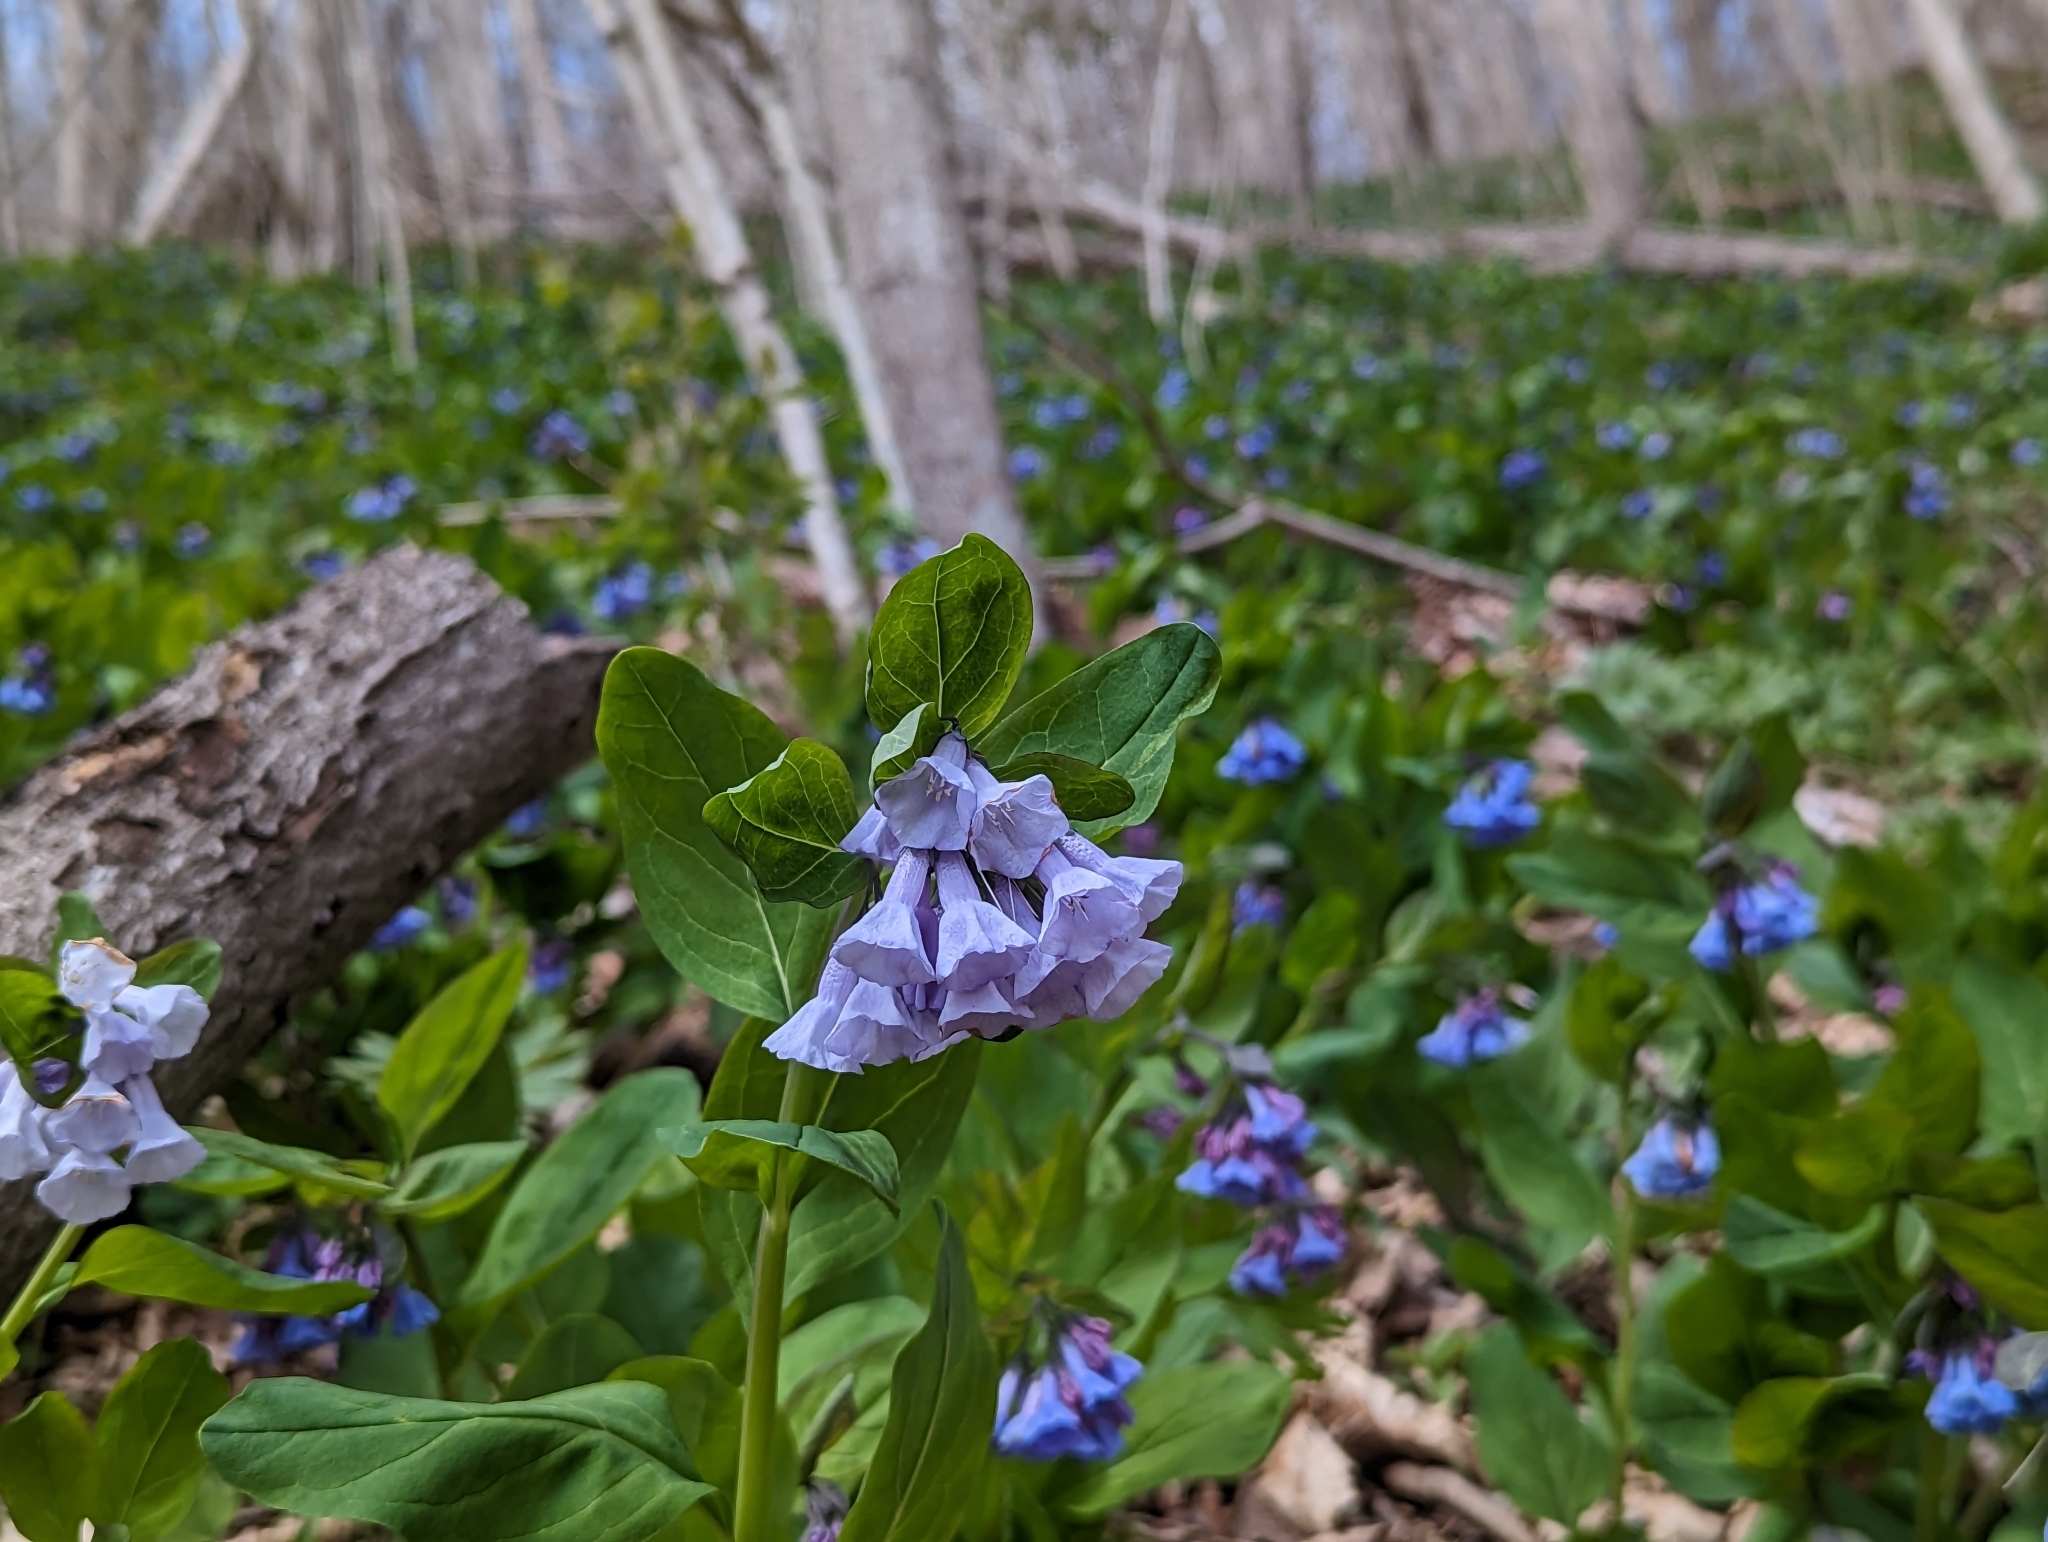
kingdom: Plantae
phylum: Tracheophyta
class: Magnoliopsida
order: Boraginales
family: Boraginaceae
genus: Mertensia
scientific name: Mertensia virginica
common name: Virginia bluebells
